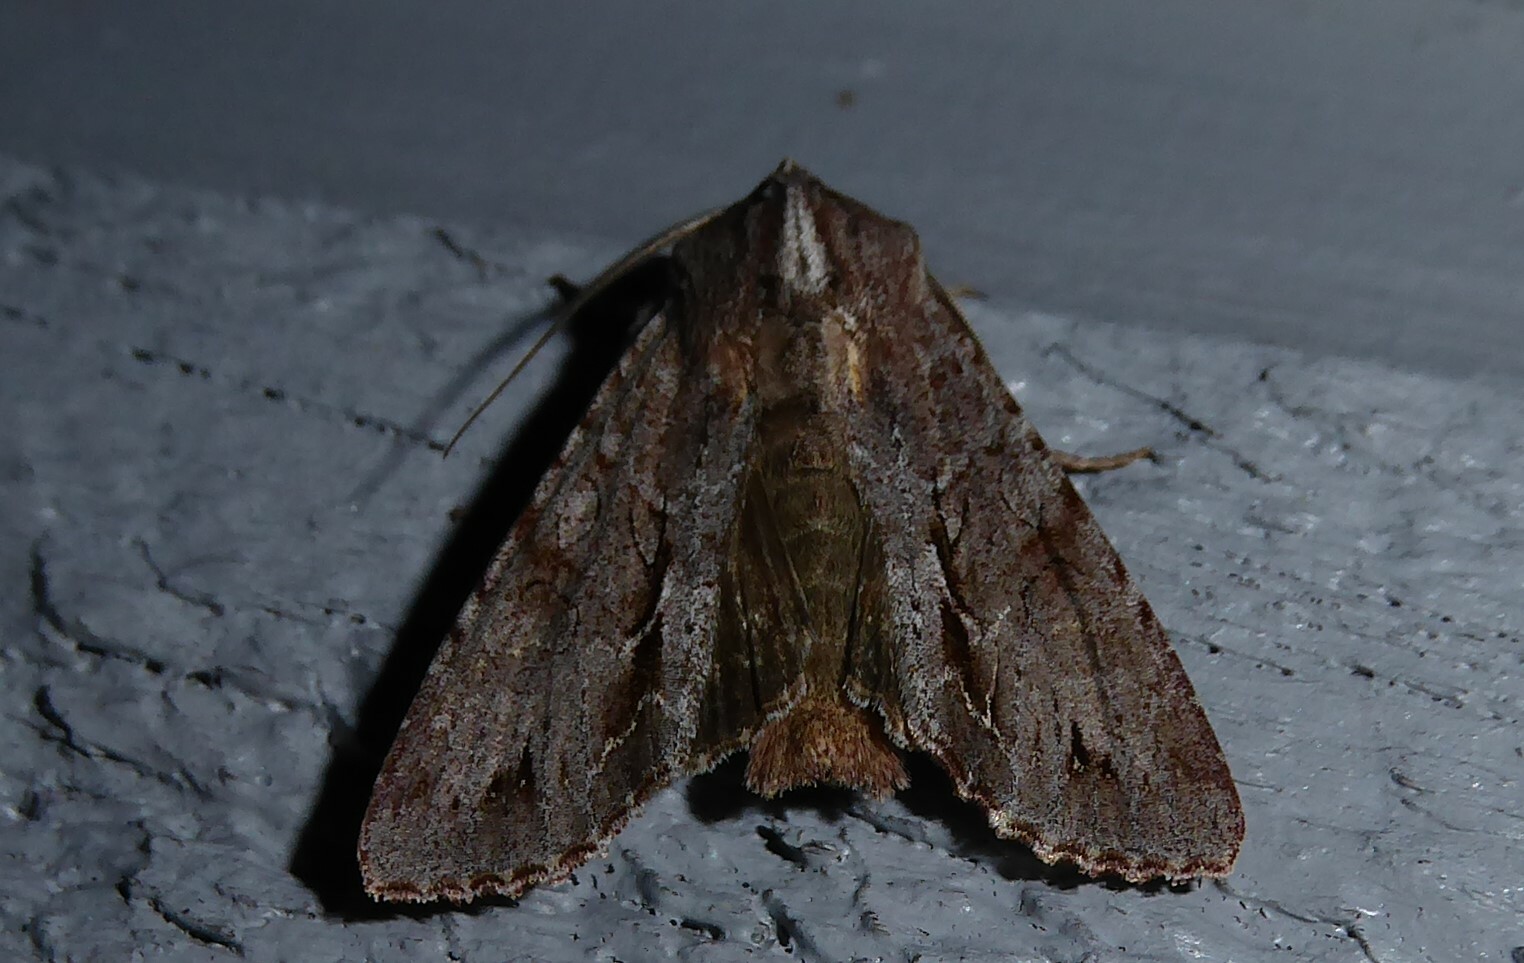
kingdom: Animalia
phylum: Arthropoda
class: Insecta
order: Lepidoptera
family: Noctuidae
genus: Ichneutica
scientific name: Ichneutica
